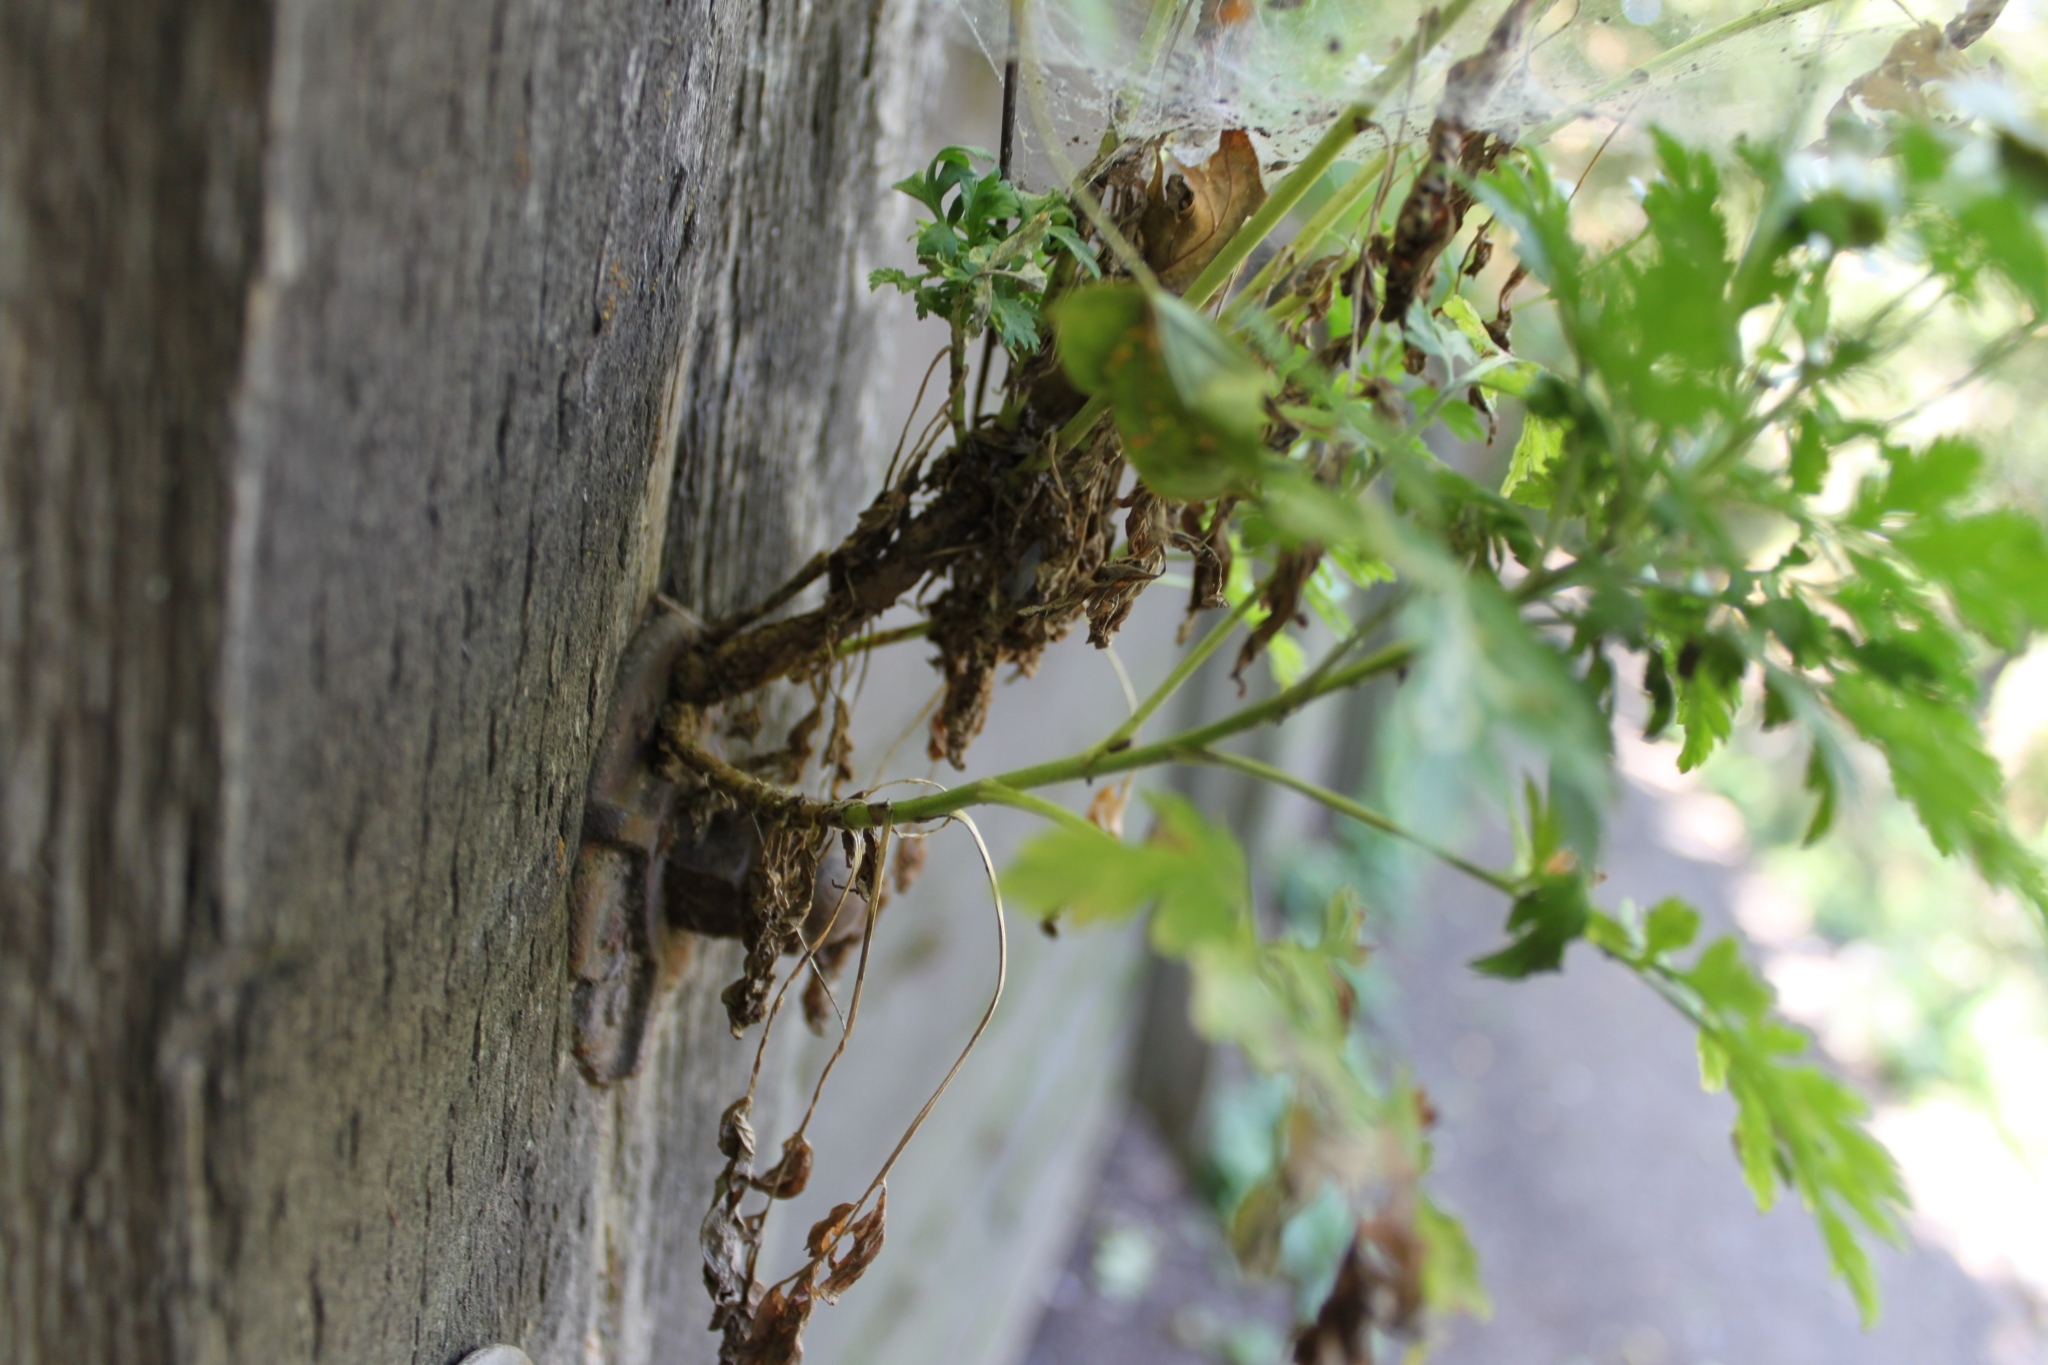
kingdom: Plantae
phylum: Tracheophyta
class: Magnoliopsida
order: Asterales
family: Asteraceae
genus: Tanacetum
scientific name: Tanacetum parthenium
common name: Feverfew
